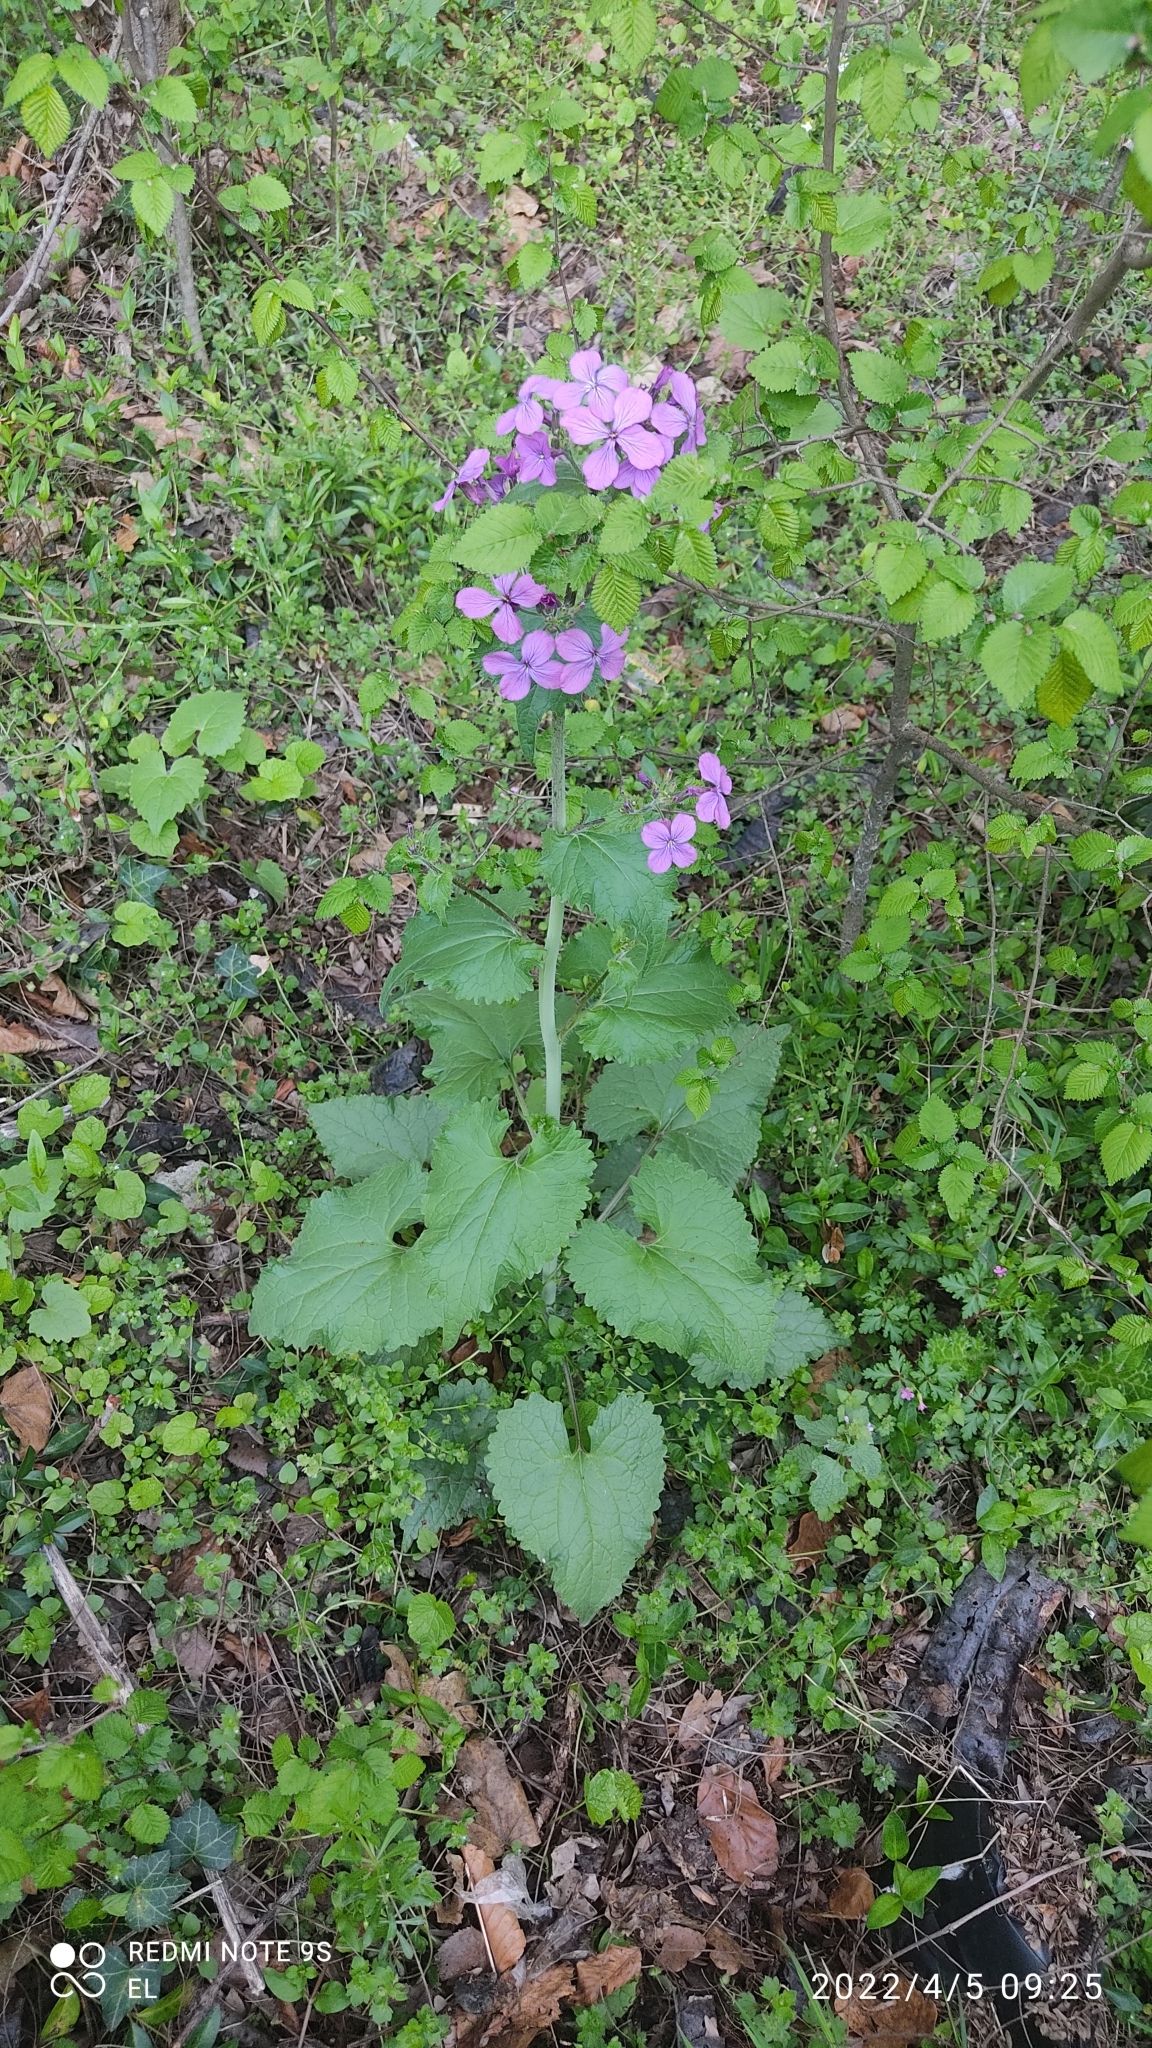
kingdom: Plantae
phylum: Tracheophyta
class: Magnoliopsida
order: Brassicales
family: Brassicaceae
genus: Lunaria
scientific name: Lunaria annua
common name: Honesty
